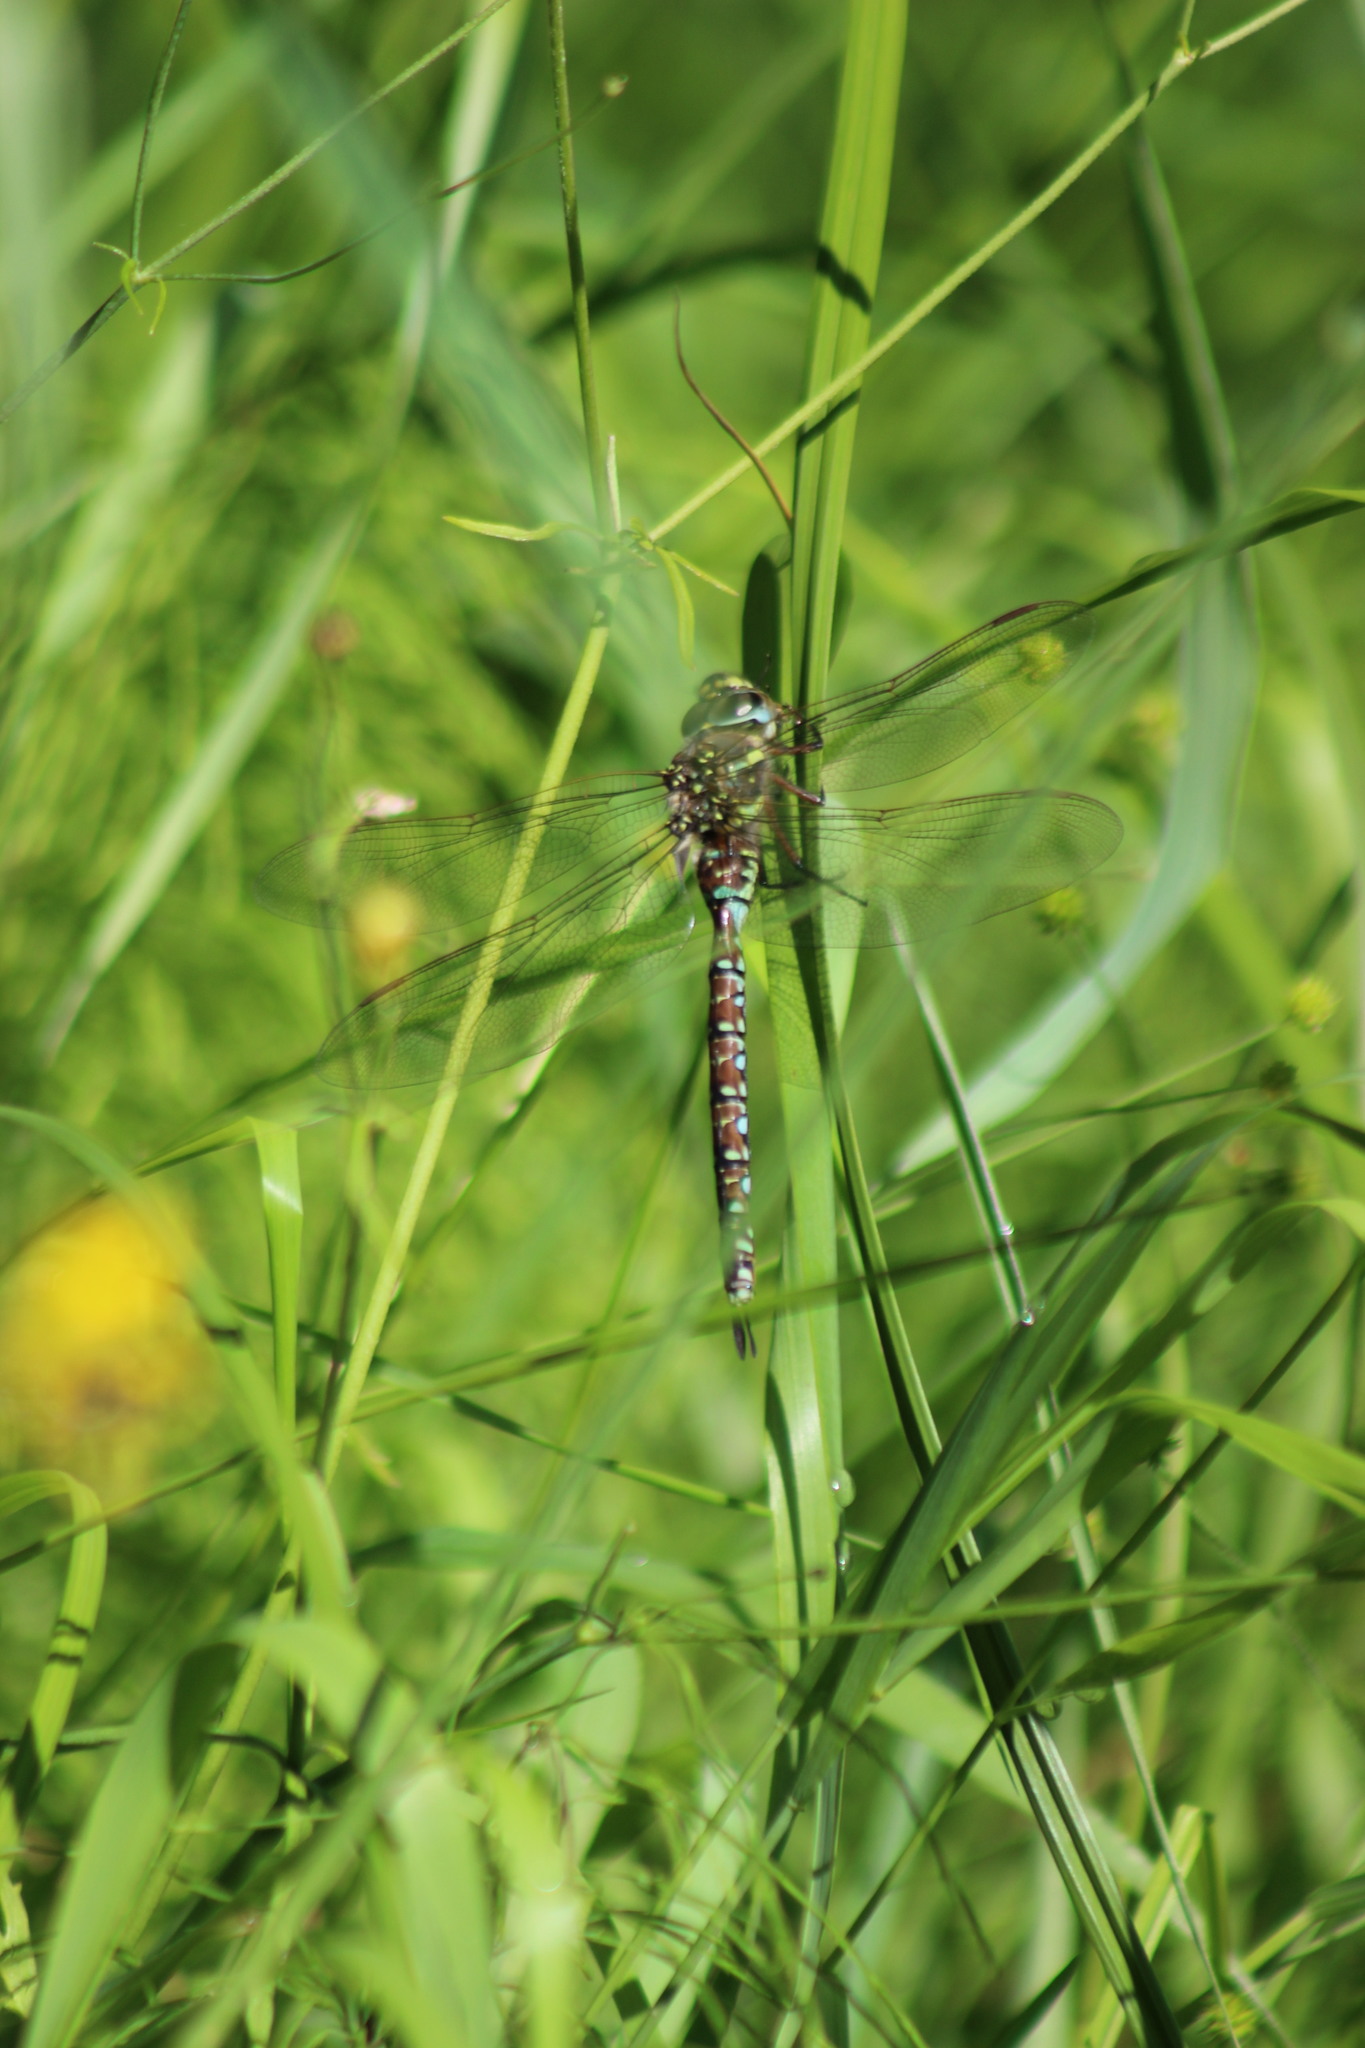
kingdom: Animalia
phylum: Arthropoda
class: Insecta
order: Odonata
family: Aeshnidae
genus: Aeshna
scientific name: Aeshna juncea
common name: Moorland hawker
